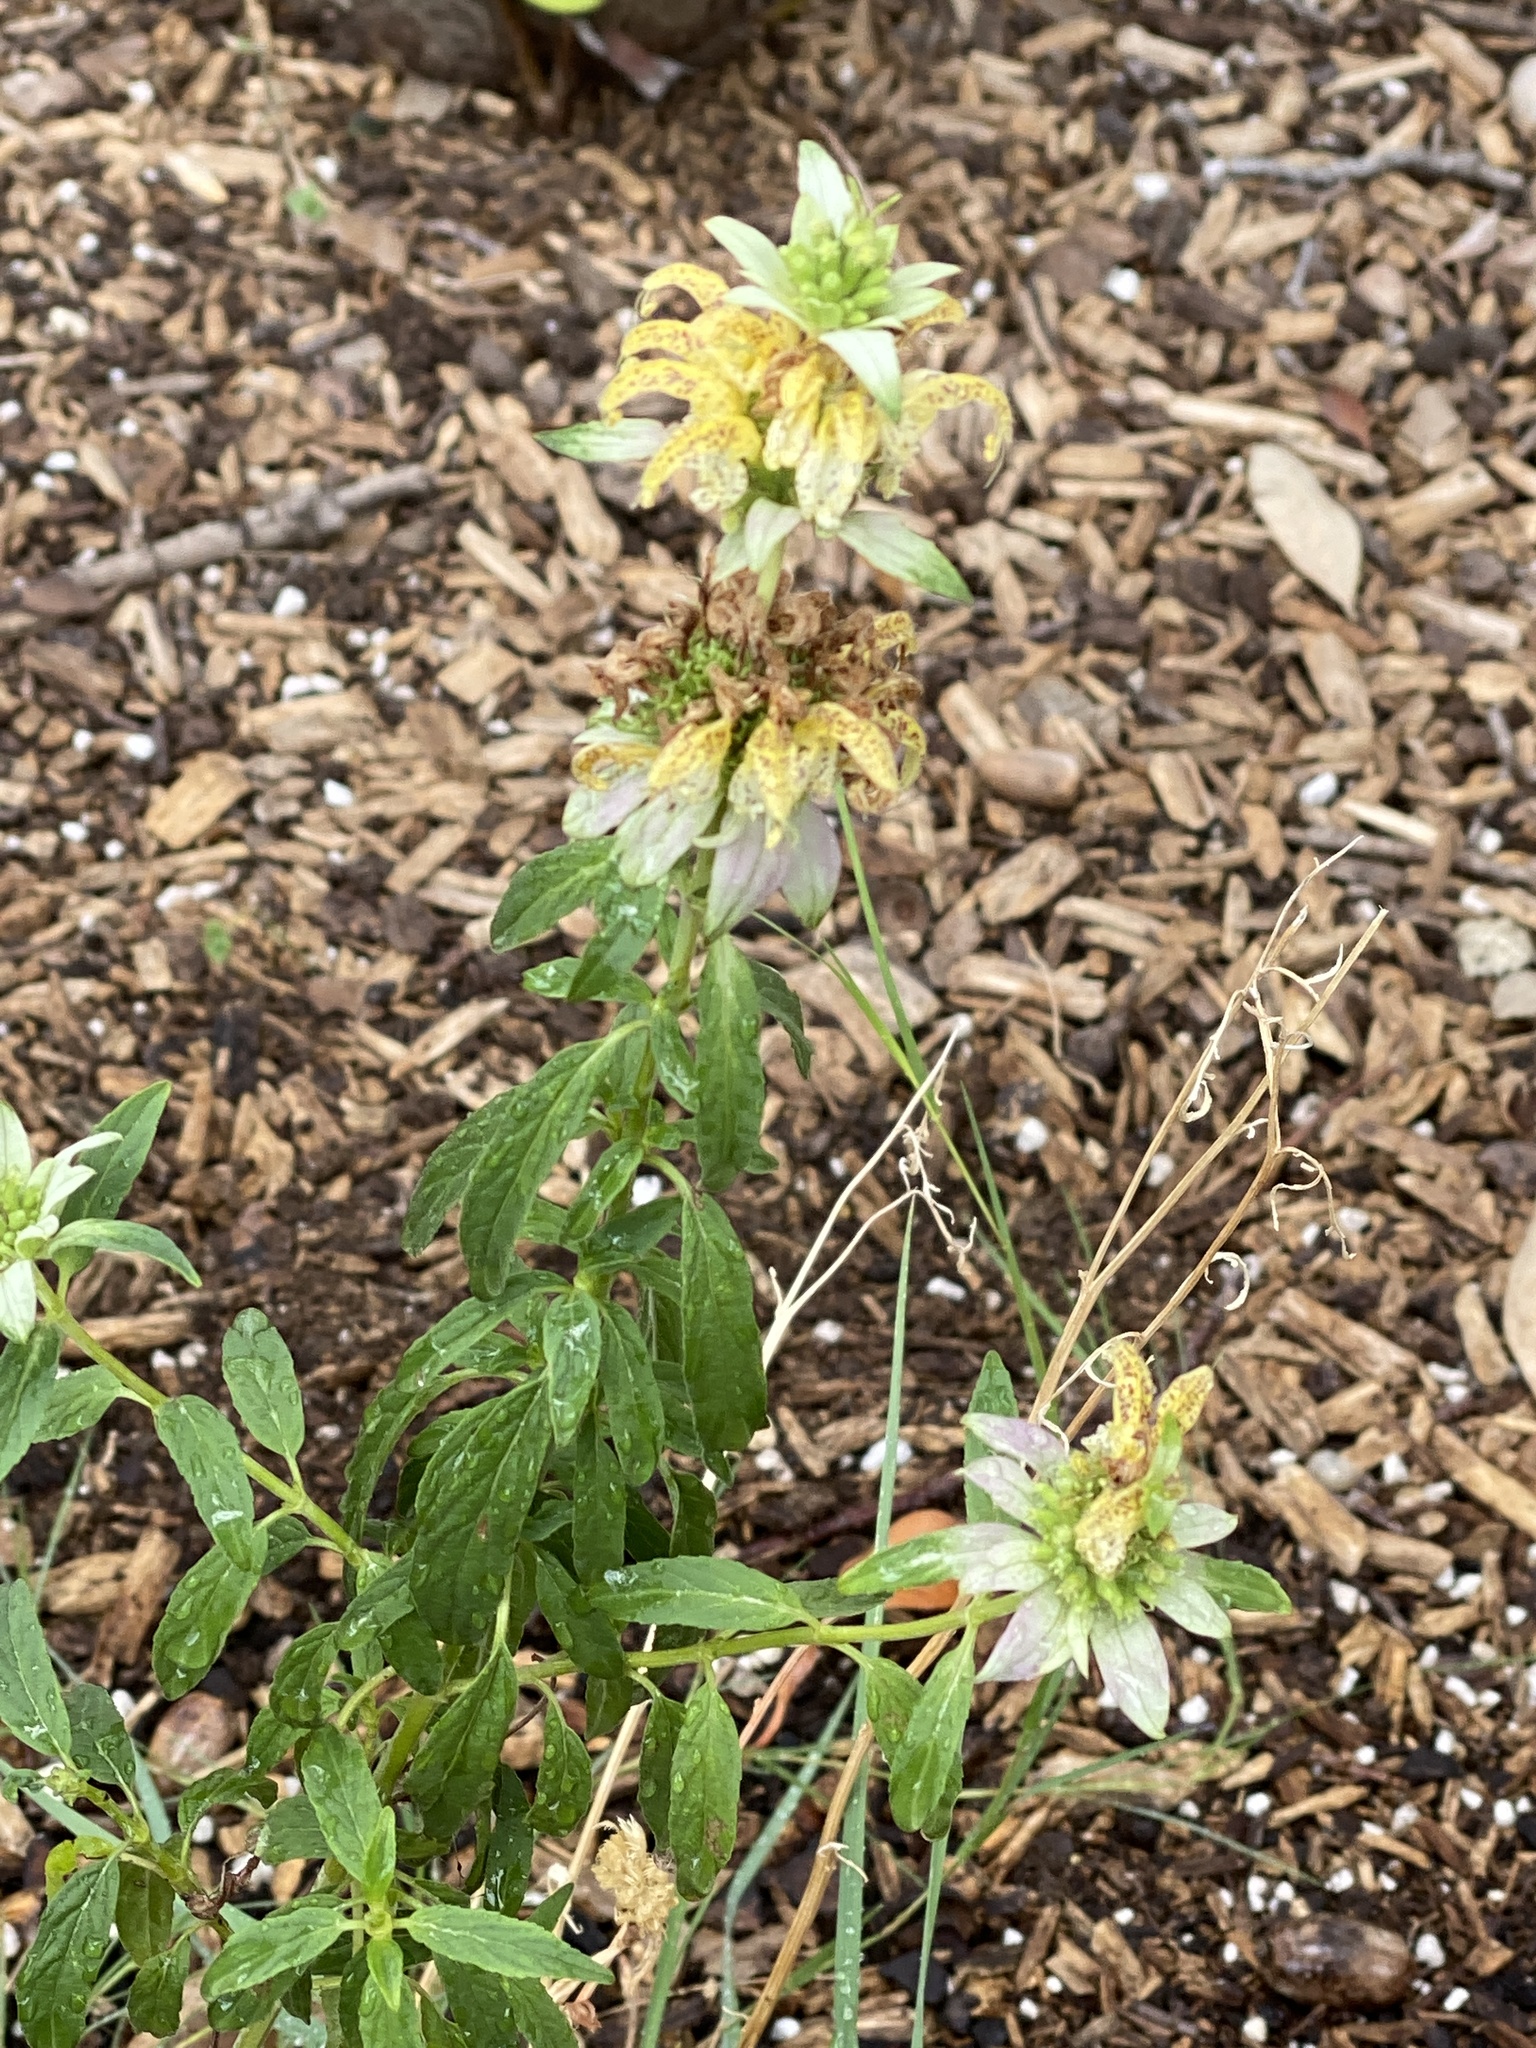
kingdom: Plantae
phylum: Tracheophyta
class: Magnoliopsida
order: Lamiales
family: Lamiaceae
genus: Monarda
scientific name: Monarda punctata
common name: Dotted monarda
